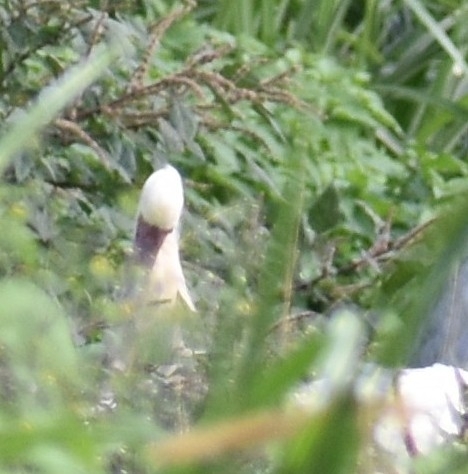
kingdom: Animalia
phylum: Chordata
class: Aves
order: Pelecaniformes
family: Threskiornithidae
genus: Platalea
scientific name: Platalea alba
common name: African spoonbill
